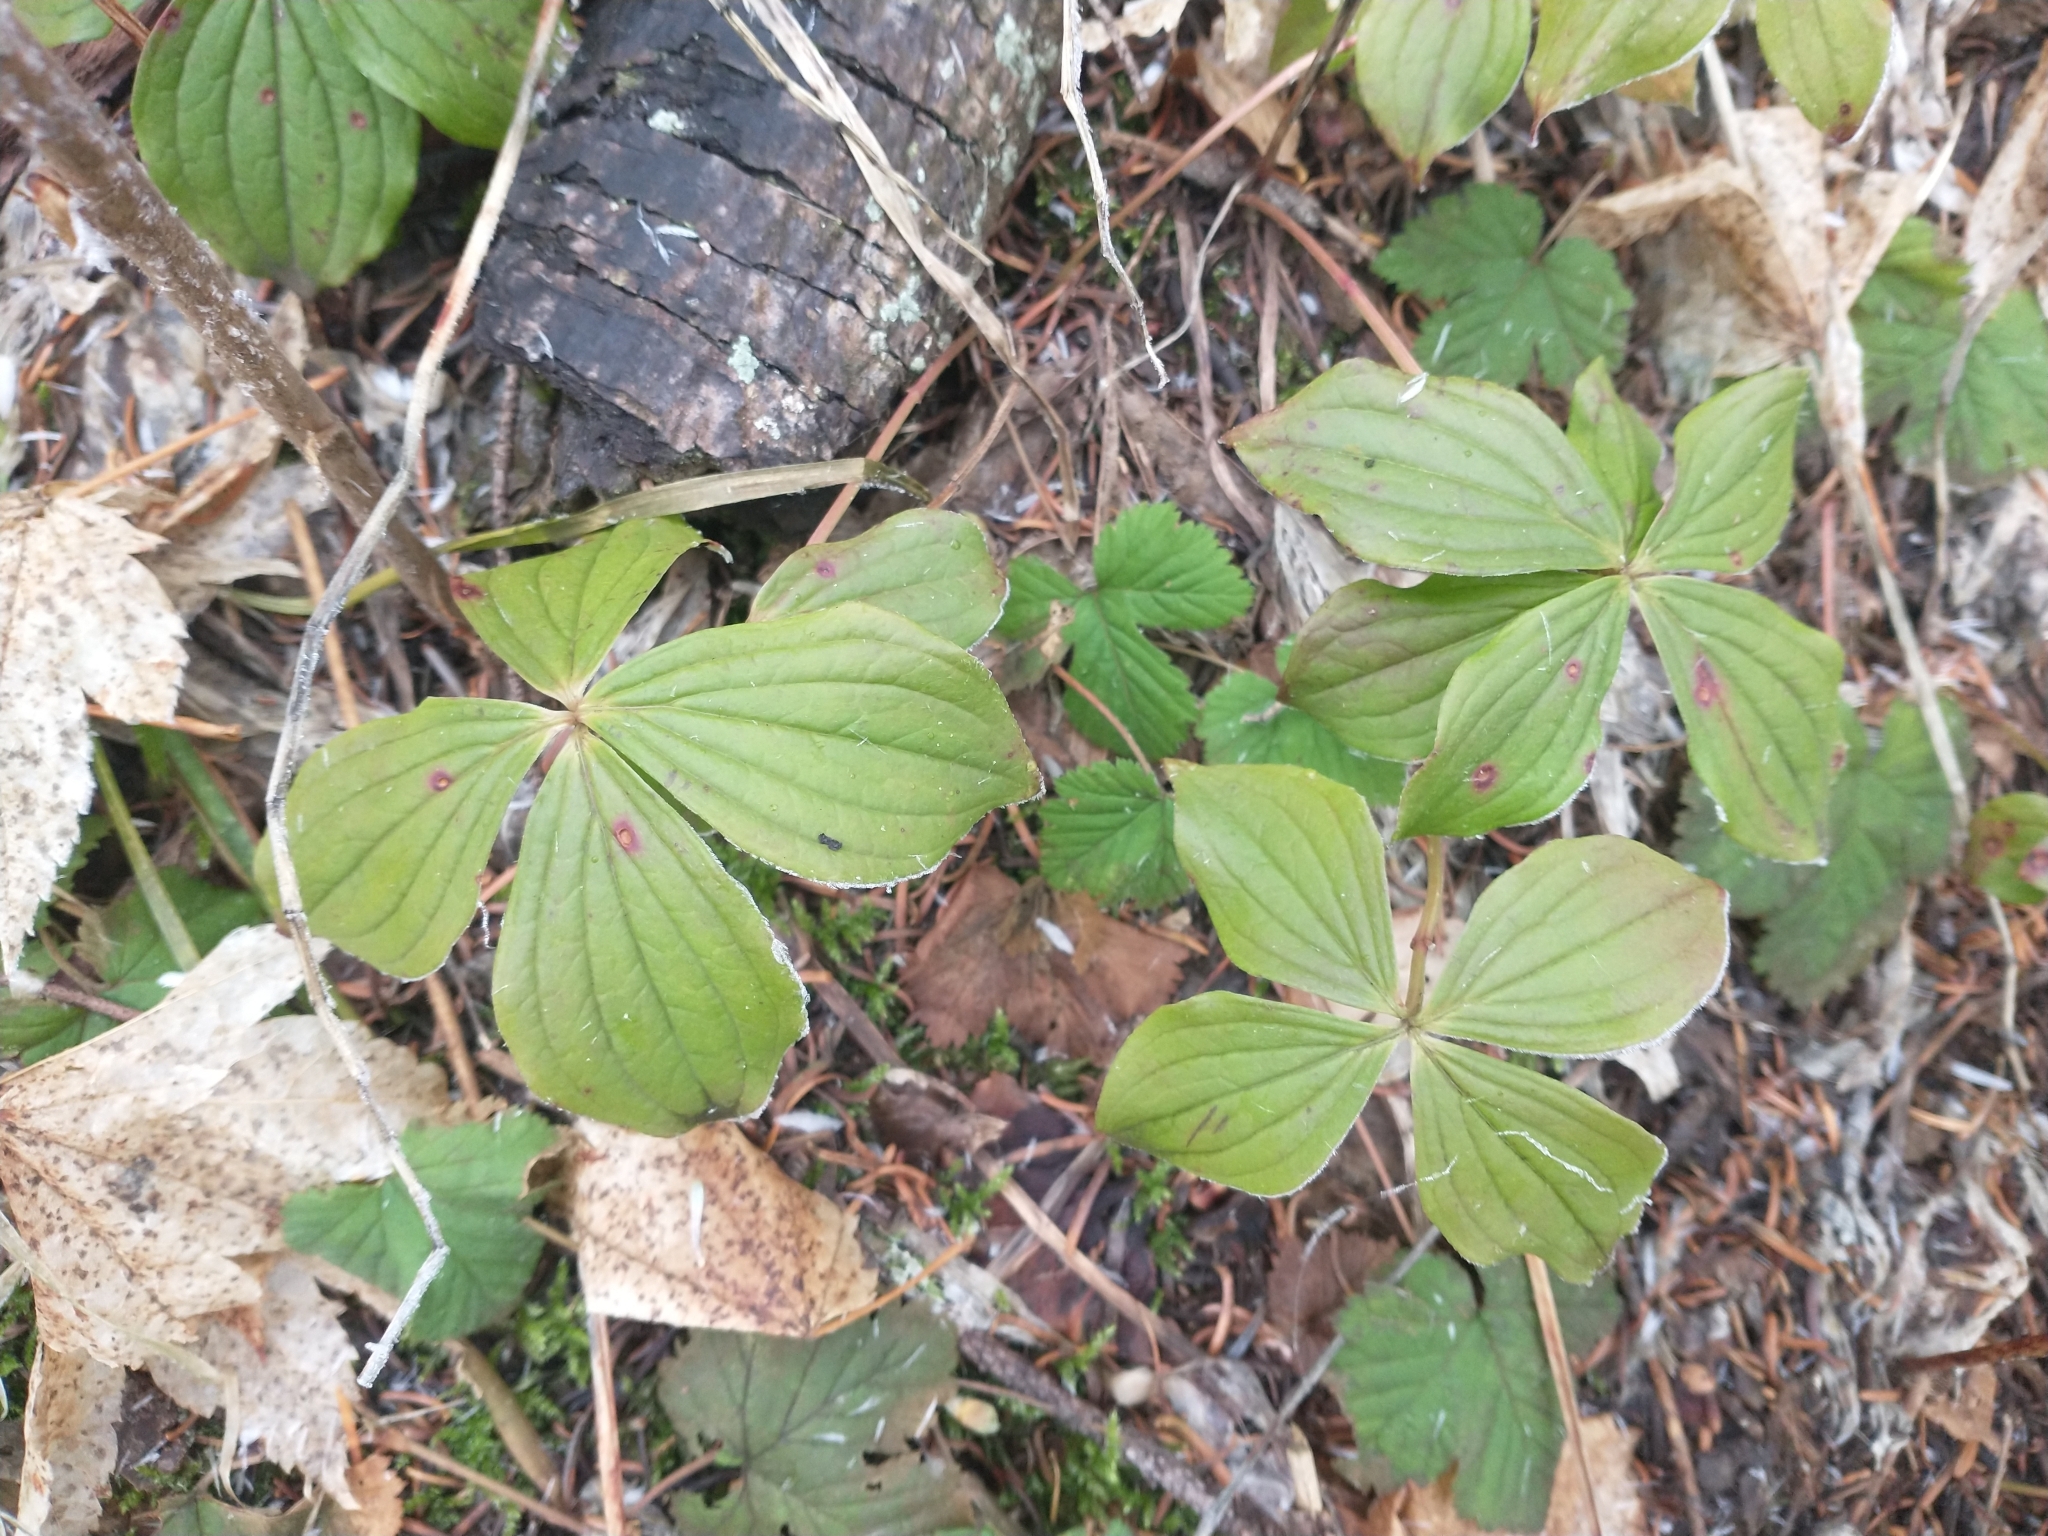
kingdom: Plantae
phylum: Tracheophyta
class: Magnoliopsida
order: Cornales
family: Cornaceae
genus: Cornus
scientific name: Cornus unalaschkensis
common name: Alaska bunchberry
